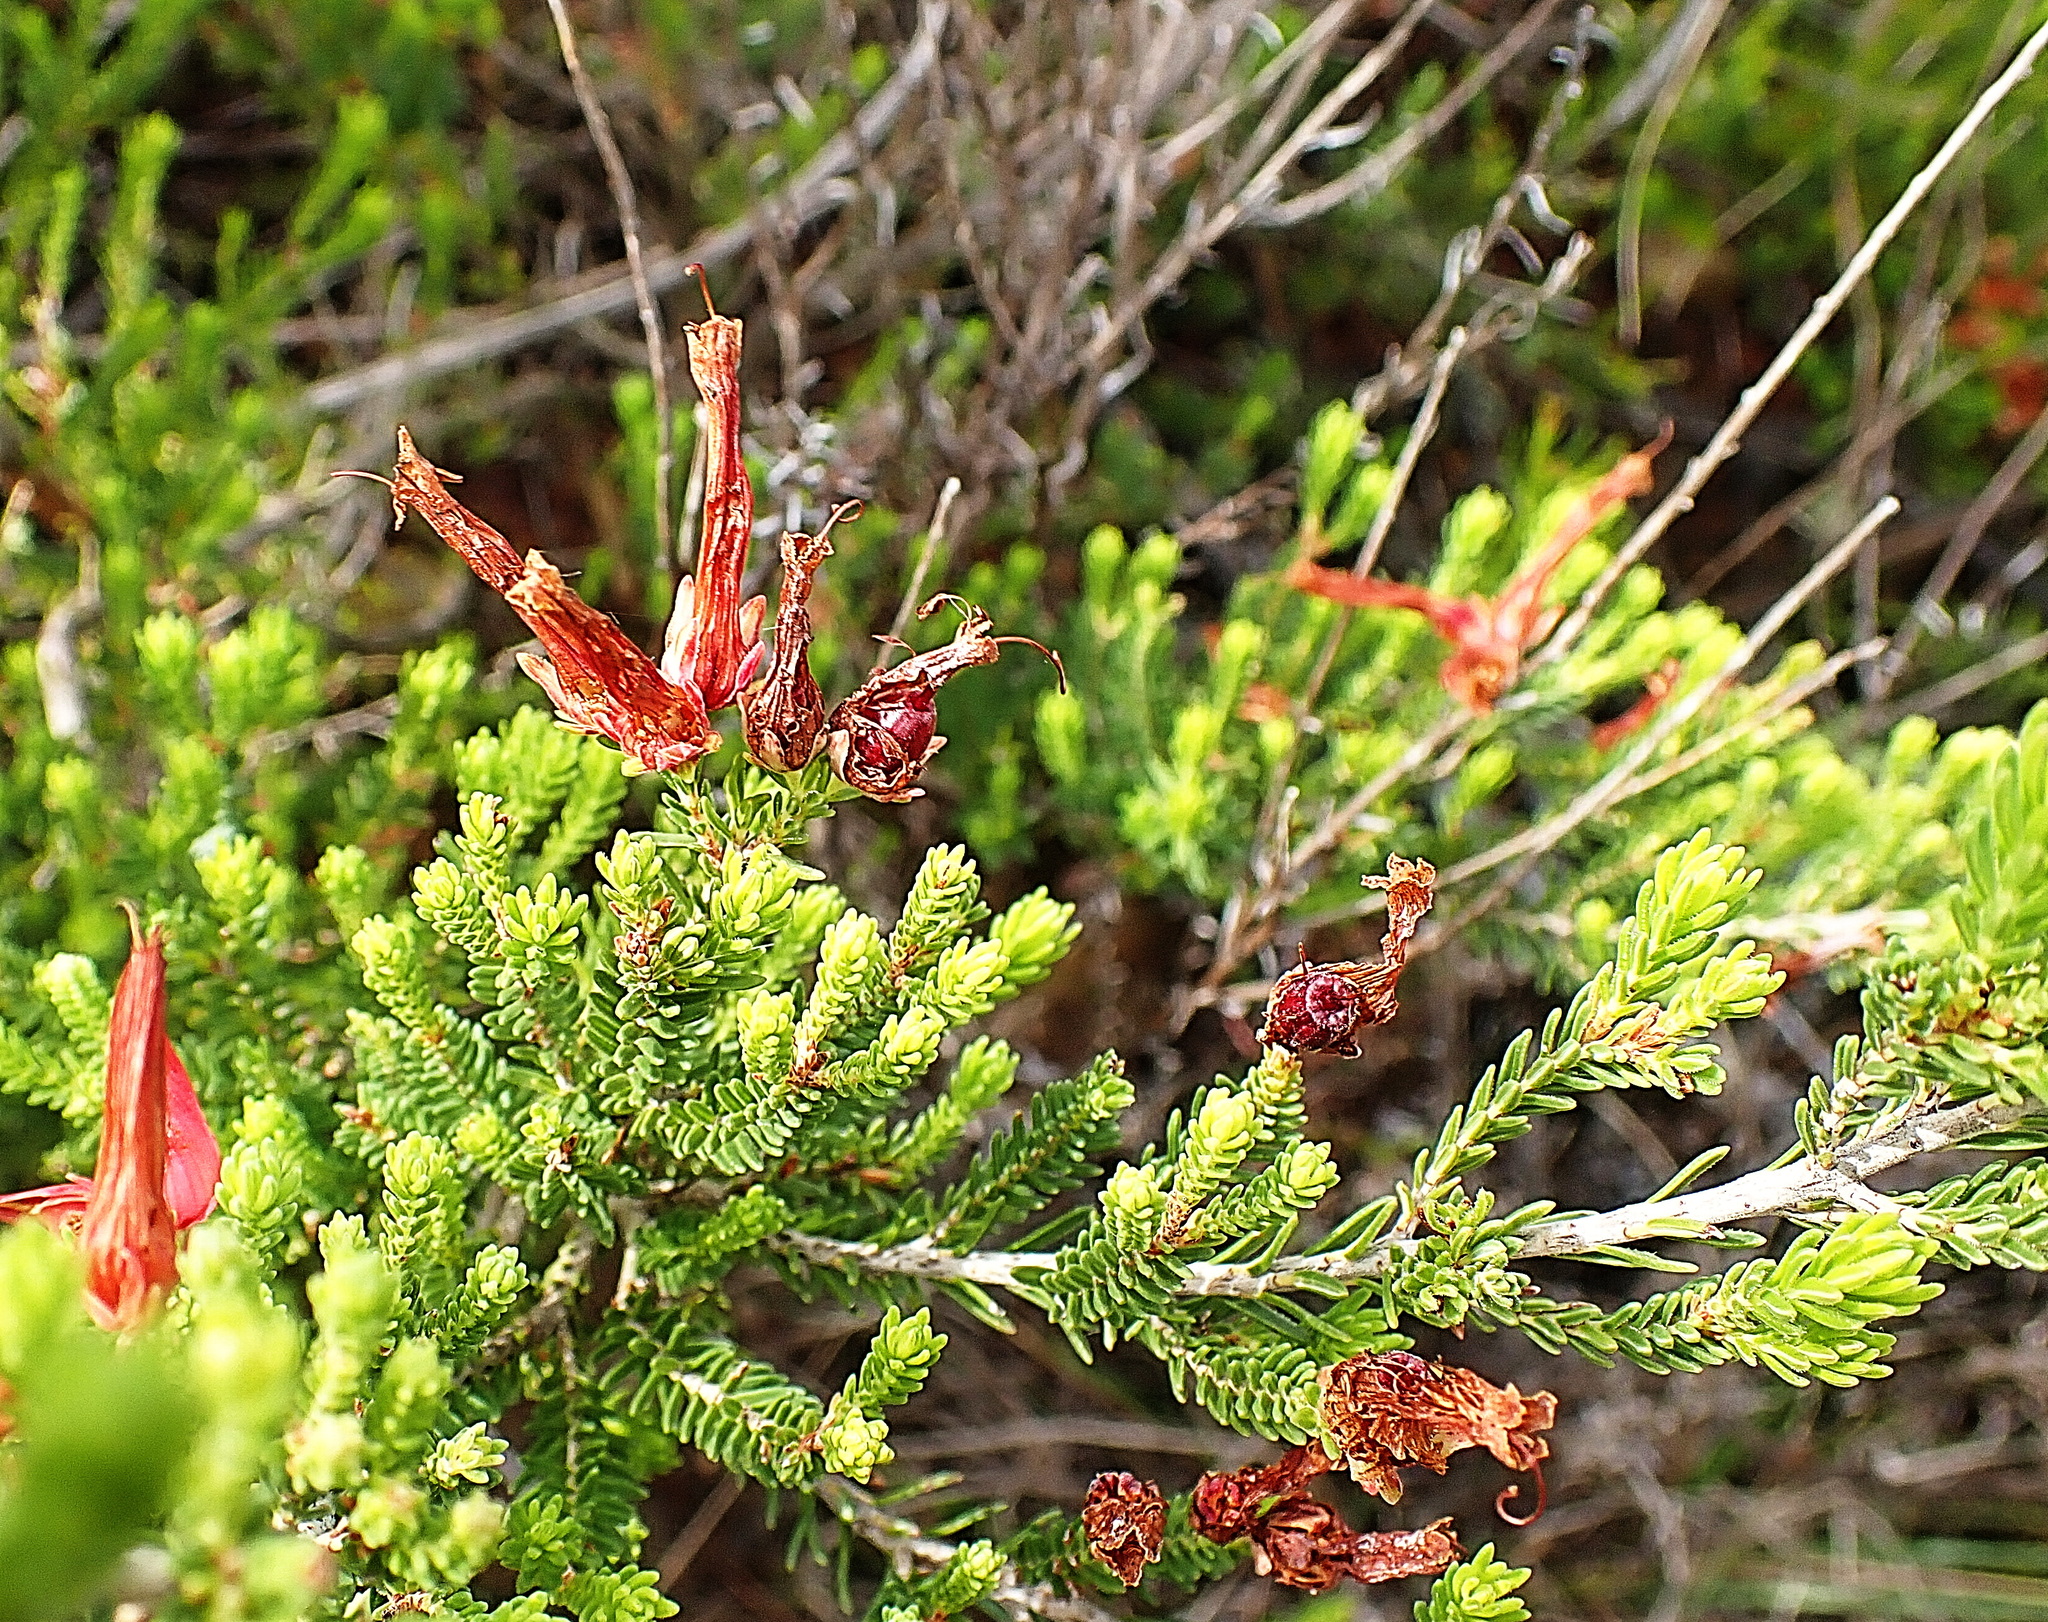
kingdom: Plantae
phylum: Tracheophyta
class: Magnoliopsida
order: Ericales
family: Ericaceae
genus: Erica
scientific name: Erica discolor
